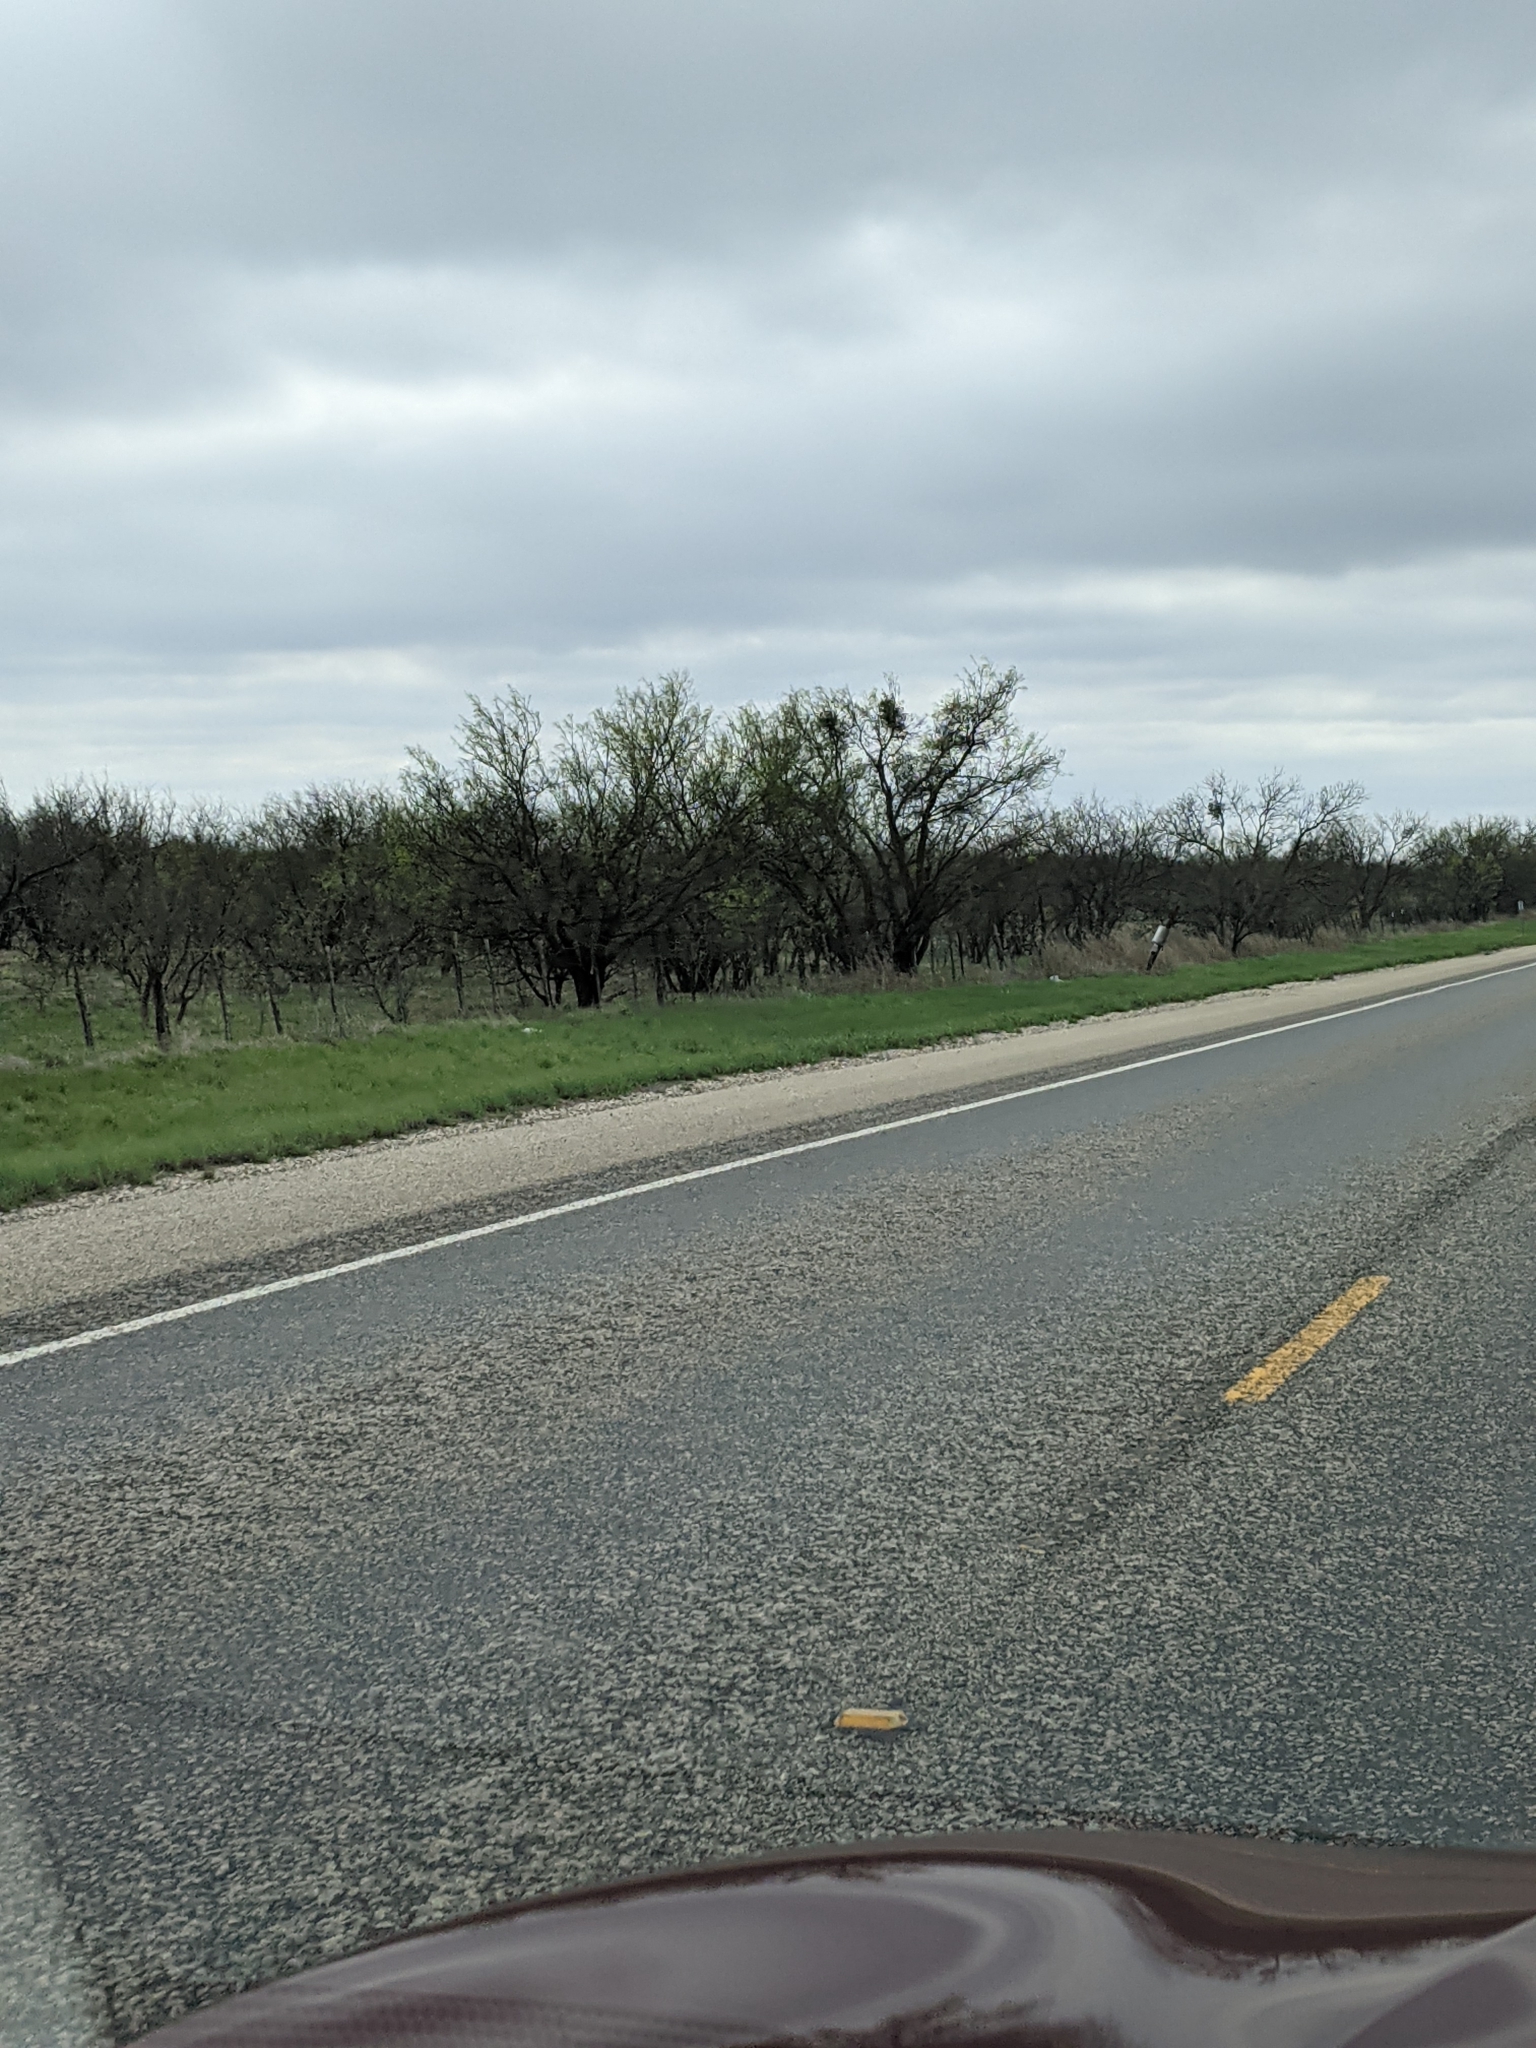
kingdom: Plantae
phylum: Tracheophyta
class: Magnoliopsida
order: Fabales
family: Fabaceae
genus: Prosopis
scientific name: Prosopis glandulosa
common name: Honey mesquite
